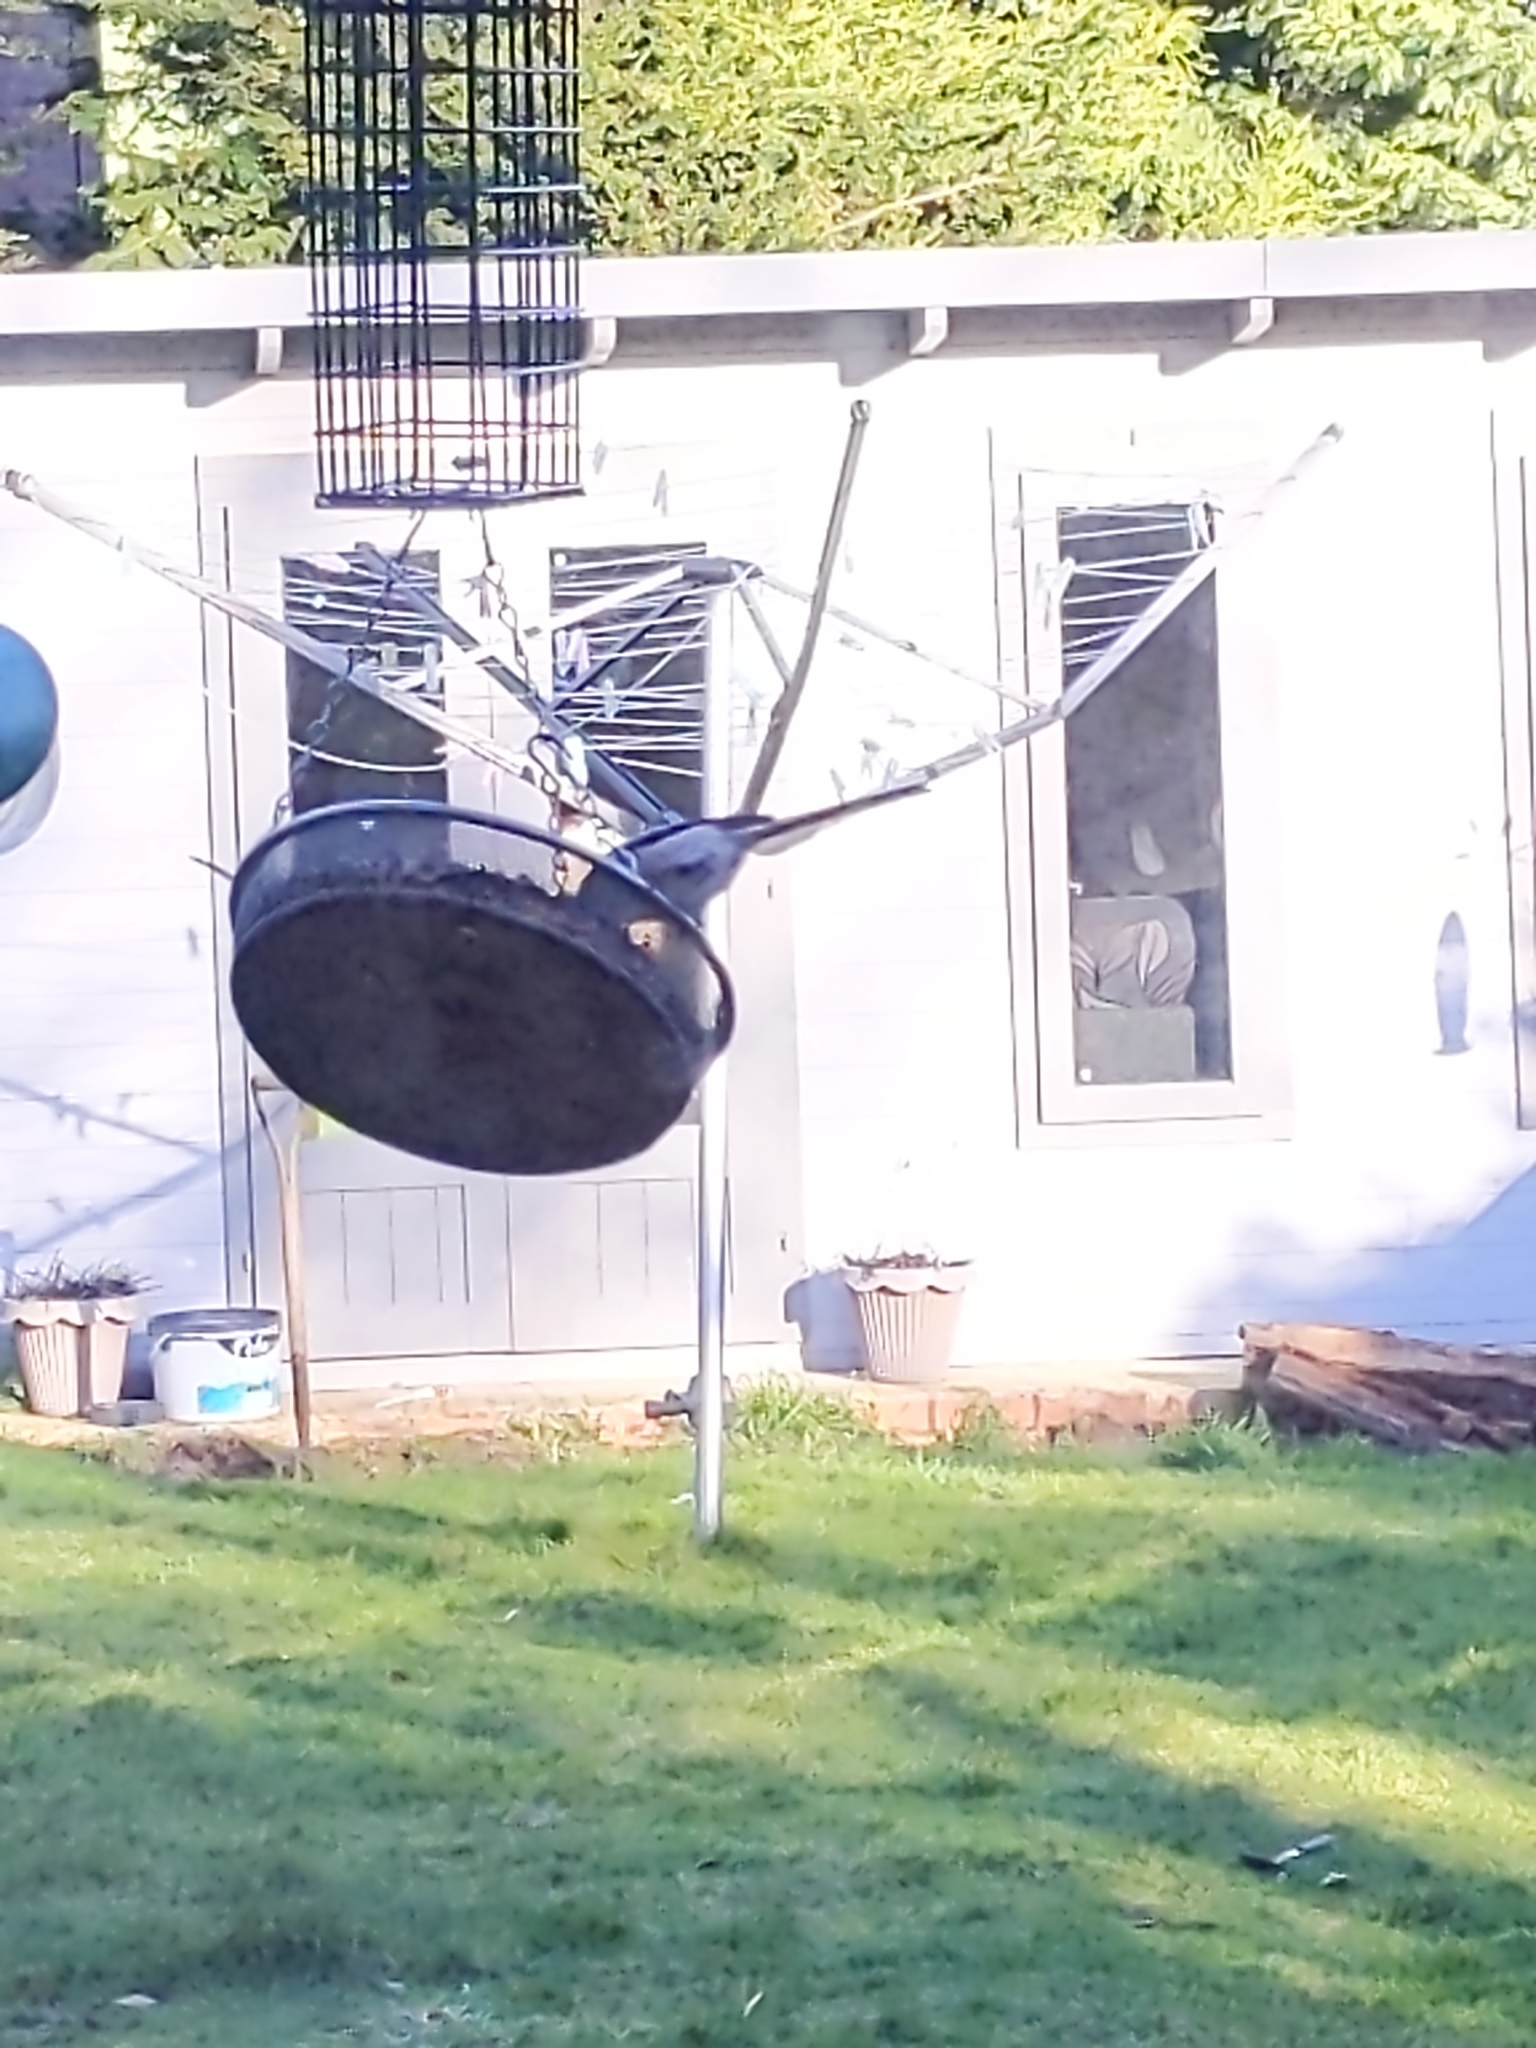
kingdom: Animalia
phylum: Chordata
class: Aves
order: Passeriformes
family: Aegithalidae
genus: Aegithalos
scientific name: Aegithalos caudatus
